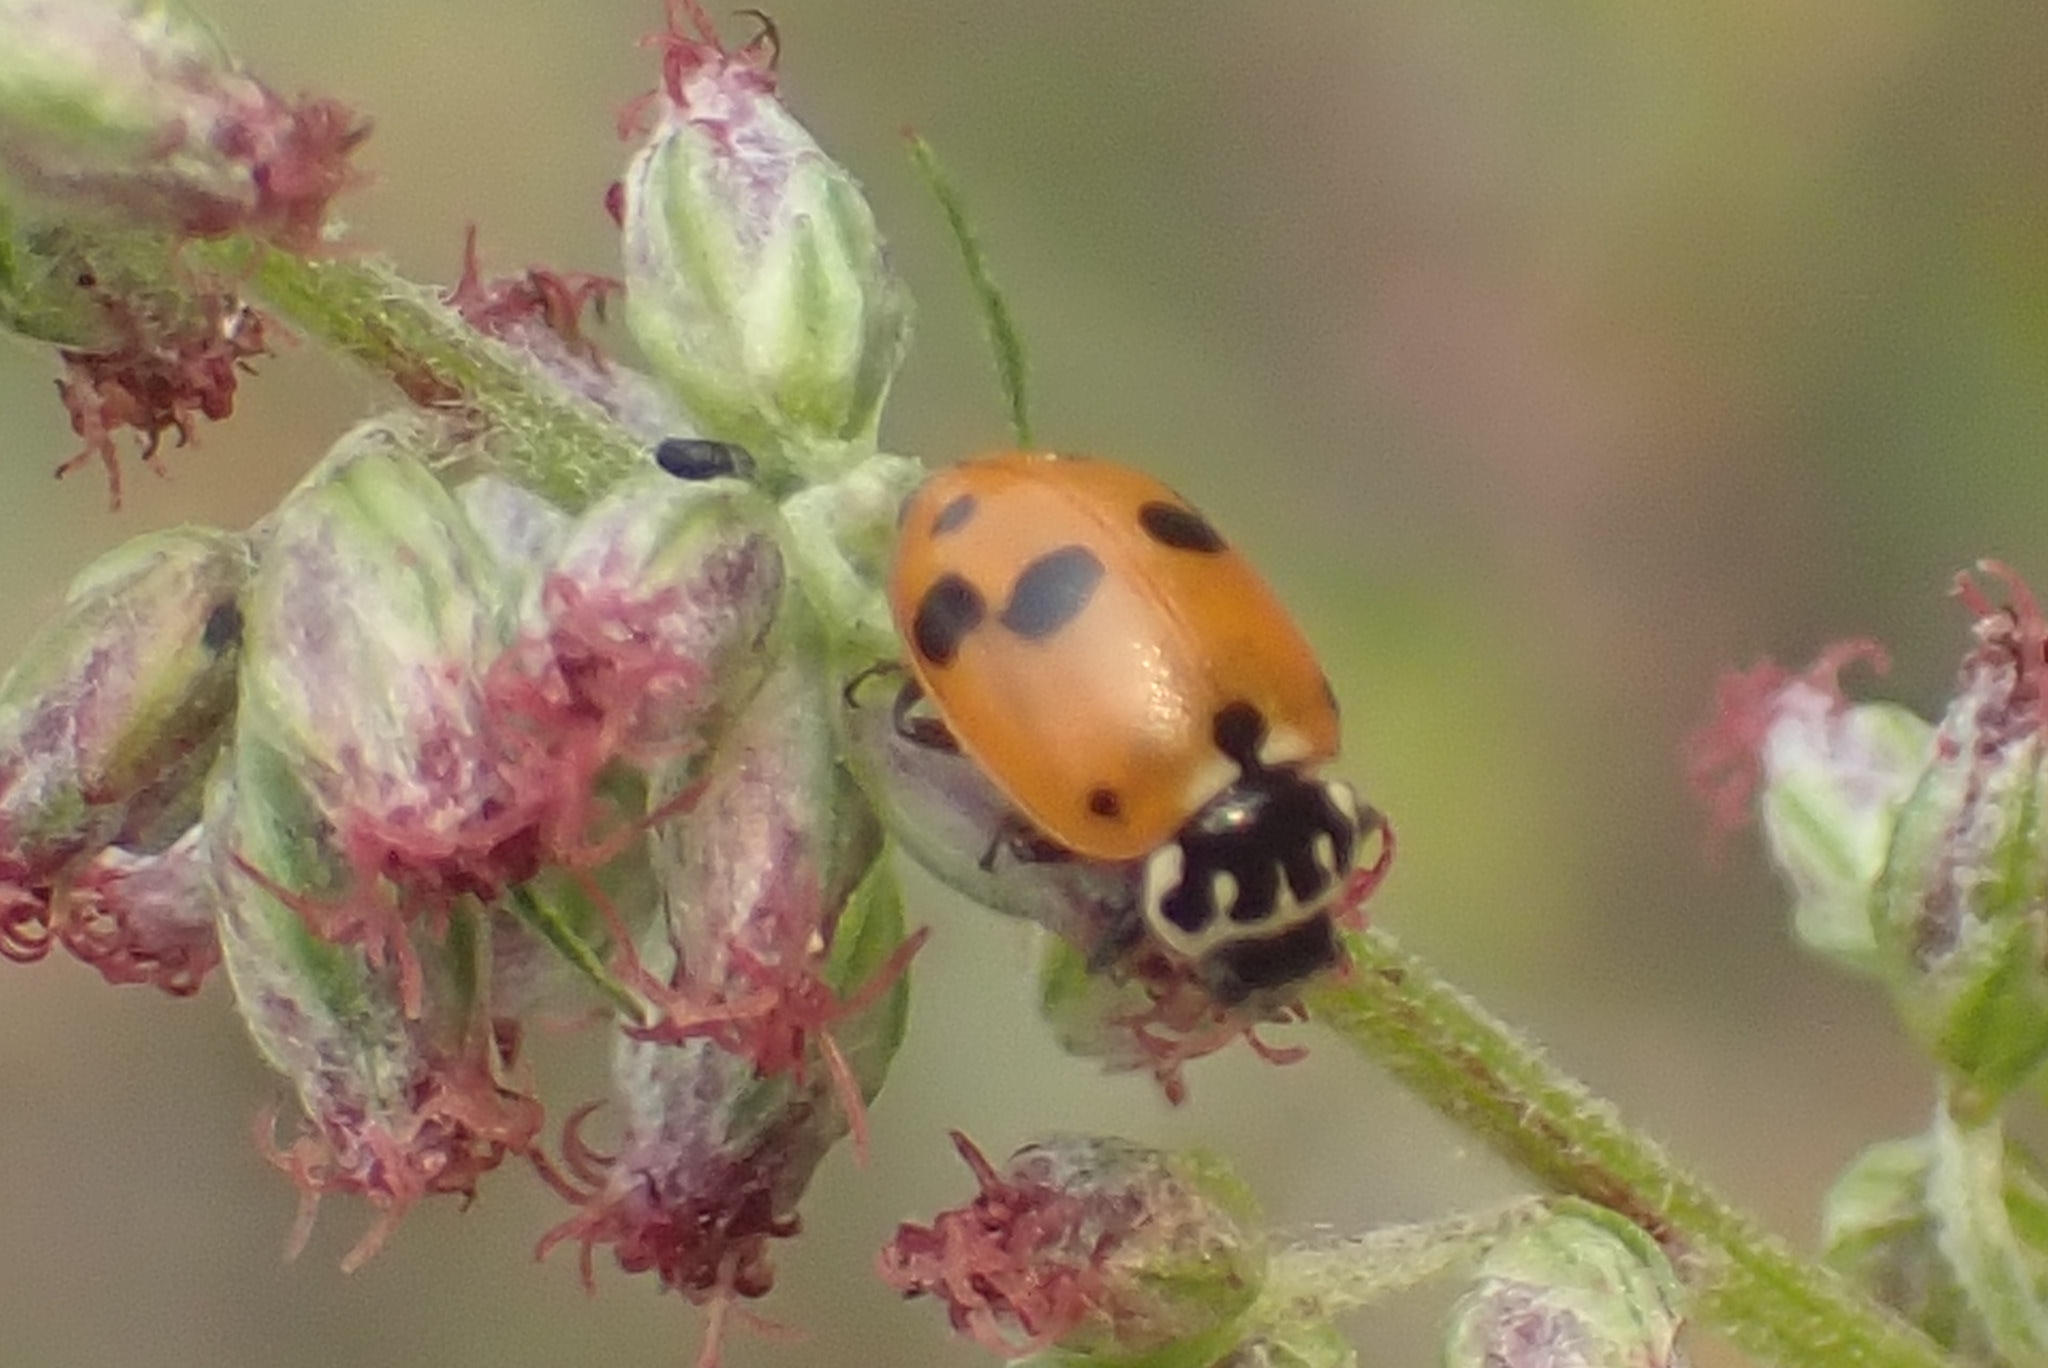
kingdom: Animalia
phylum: Arthropoda
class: Insecta
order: Coleoptera
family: Coccinellidae
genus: Hippodamia
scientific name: Hippodamia variegata
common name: Ladybird beetle
